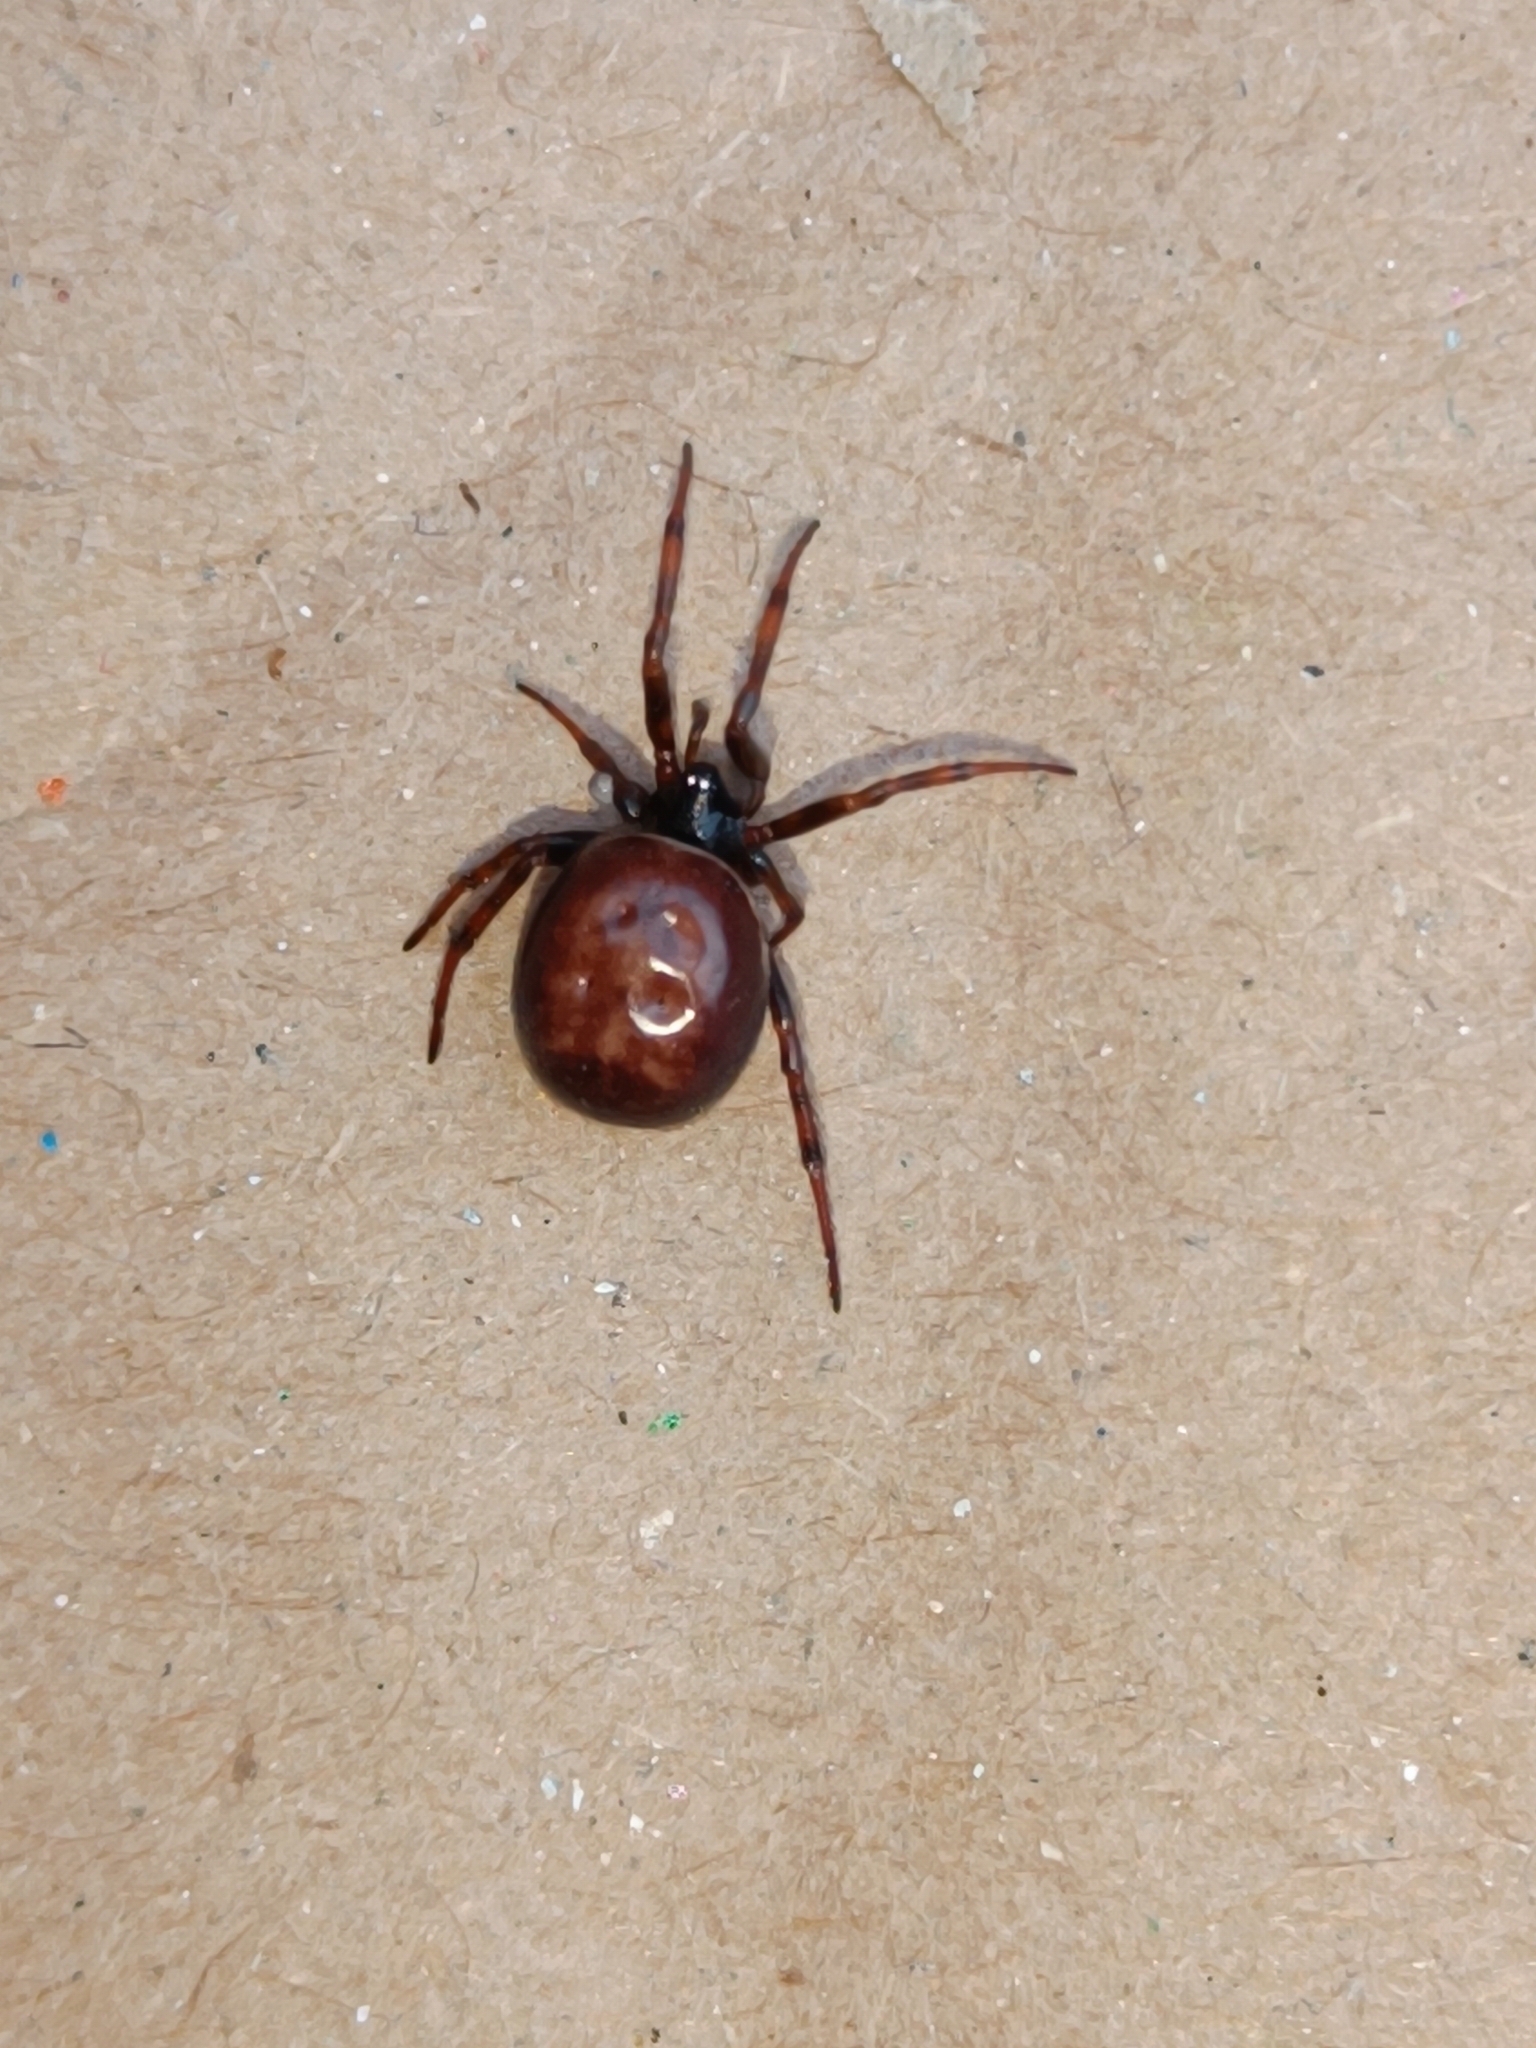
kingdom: Animalia
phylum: Arthropoda
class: Arachnida
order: Araneae
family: Theridiidae
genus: Steatoda
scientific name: Steatoda bipunctata
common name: False widow
